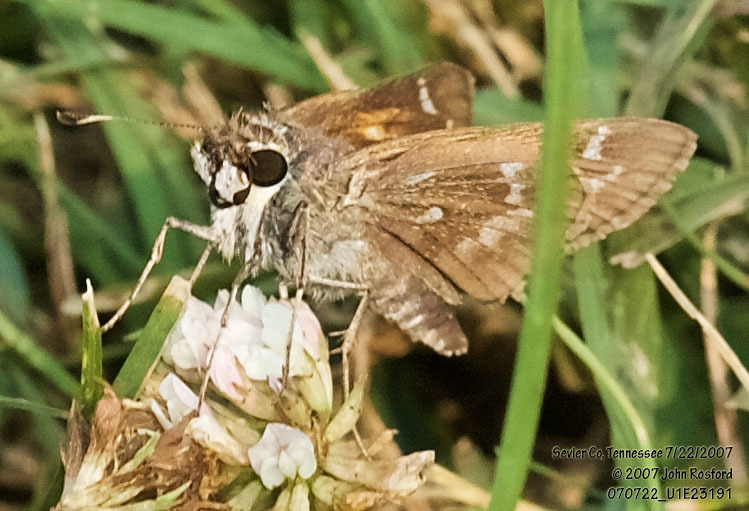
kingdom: Animalia
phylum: Arthropoda
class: Insecta
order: Lepidoptera
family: Hesperiidae
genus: Atalopedes
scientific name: Atalopedes
